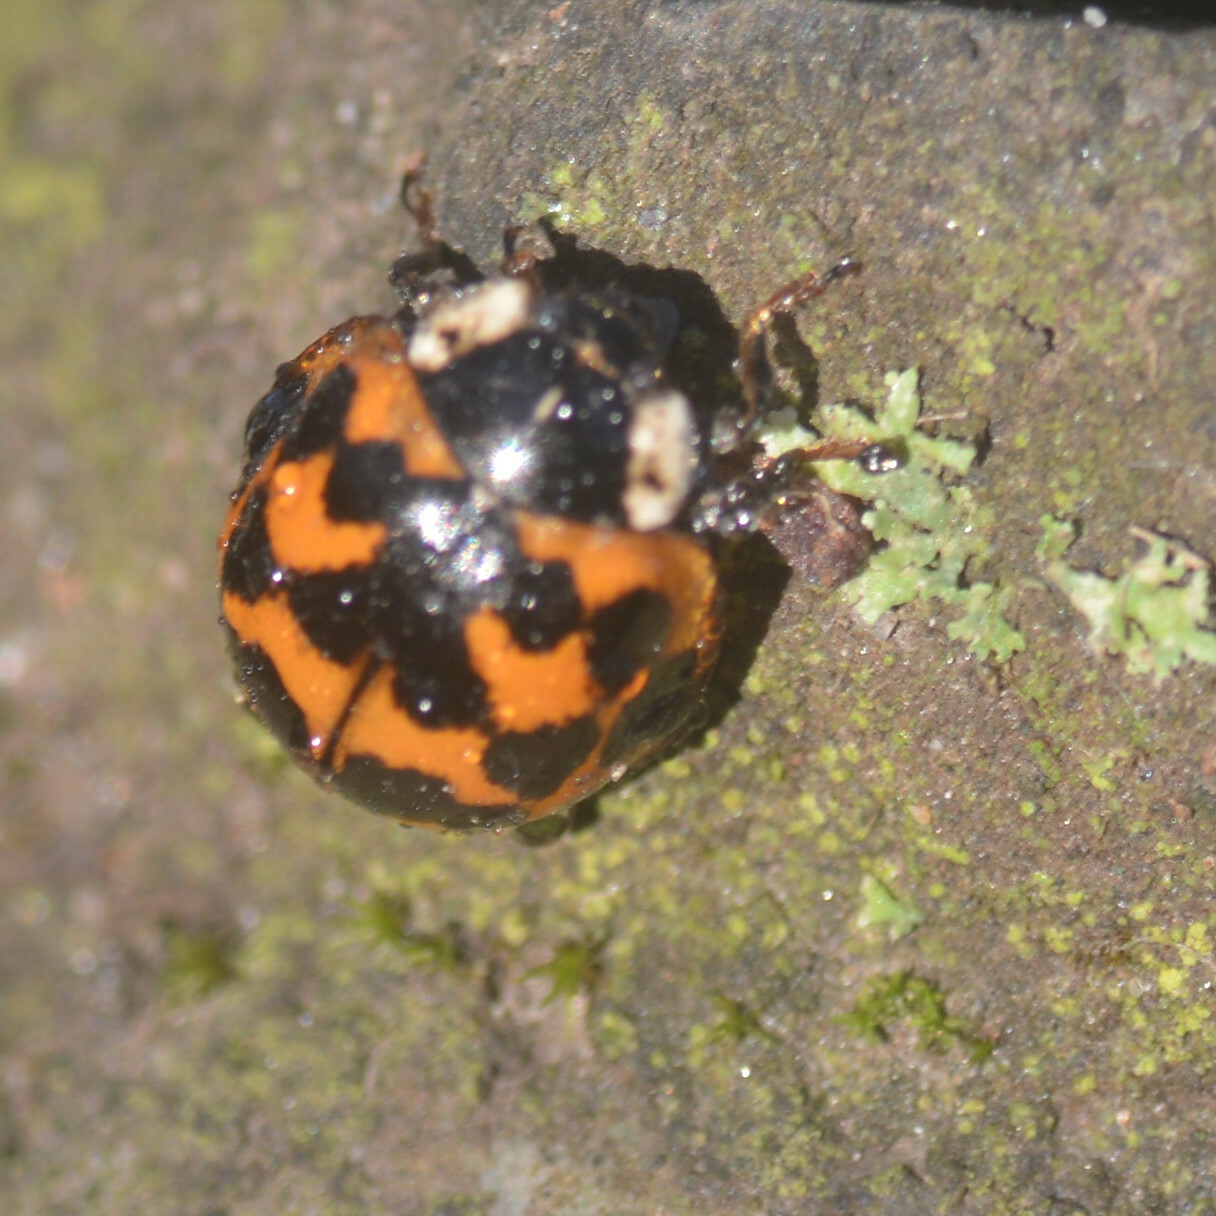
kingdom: Animalia
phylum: Arthropoda
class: Insecta
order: Coleoptera
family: Coccinellidae
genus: Harmonia
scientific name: Harmonia axyridis
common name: Harlequin ladybird
